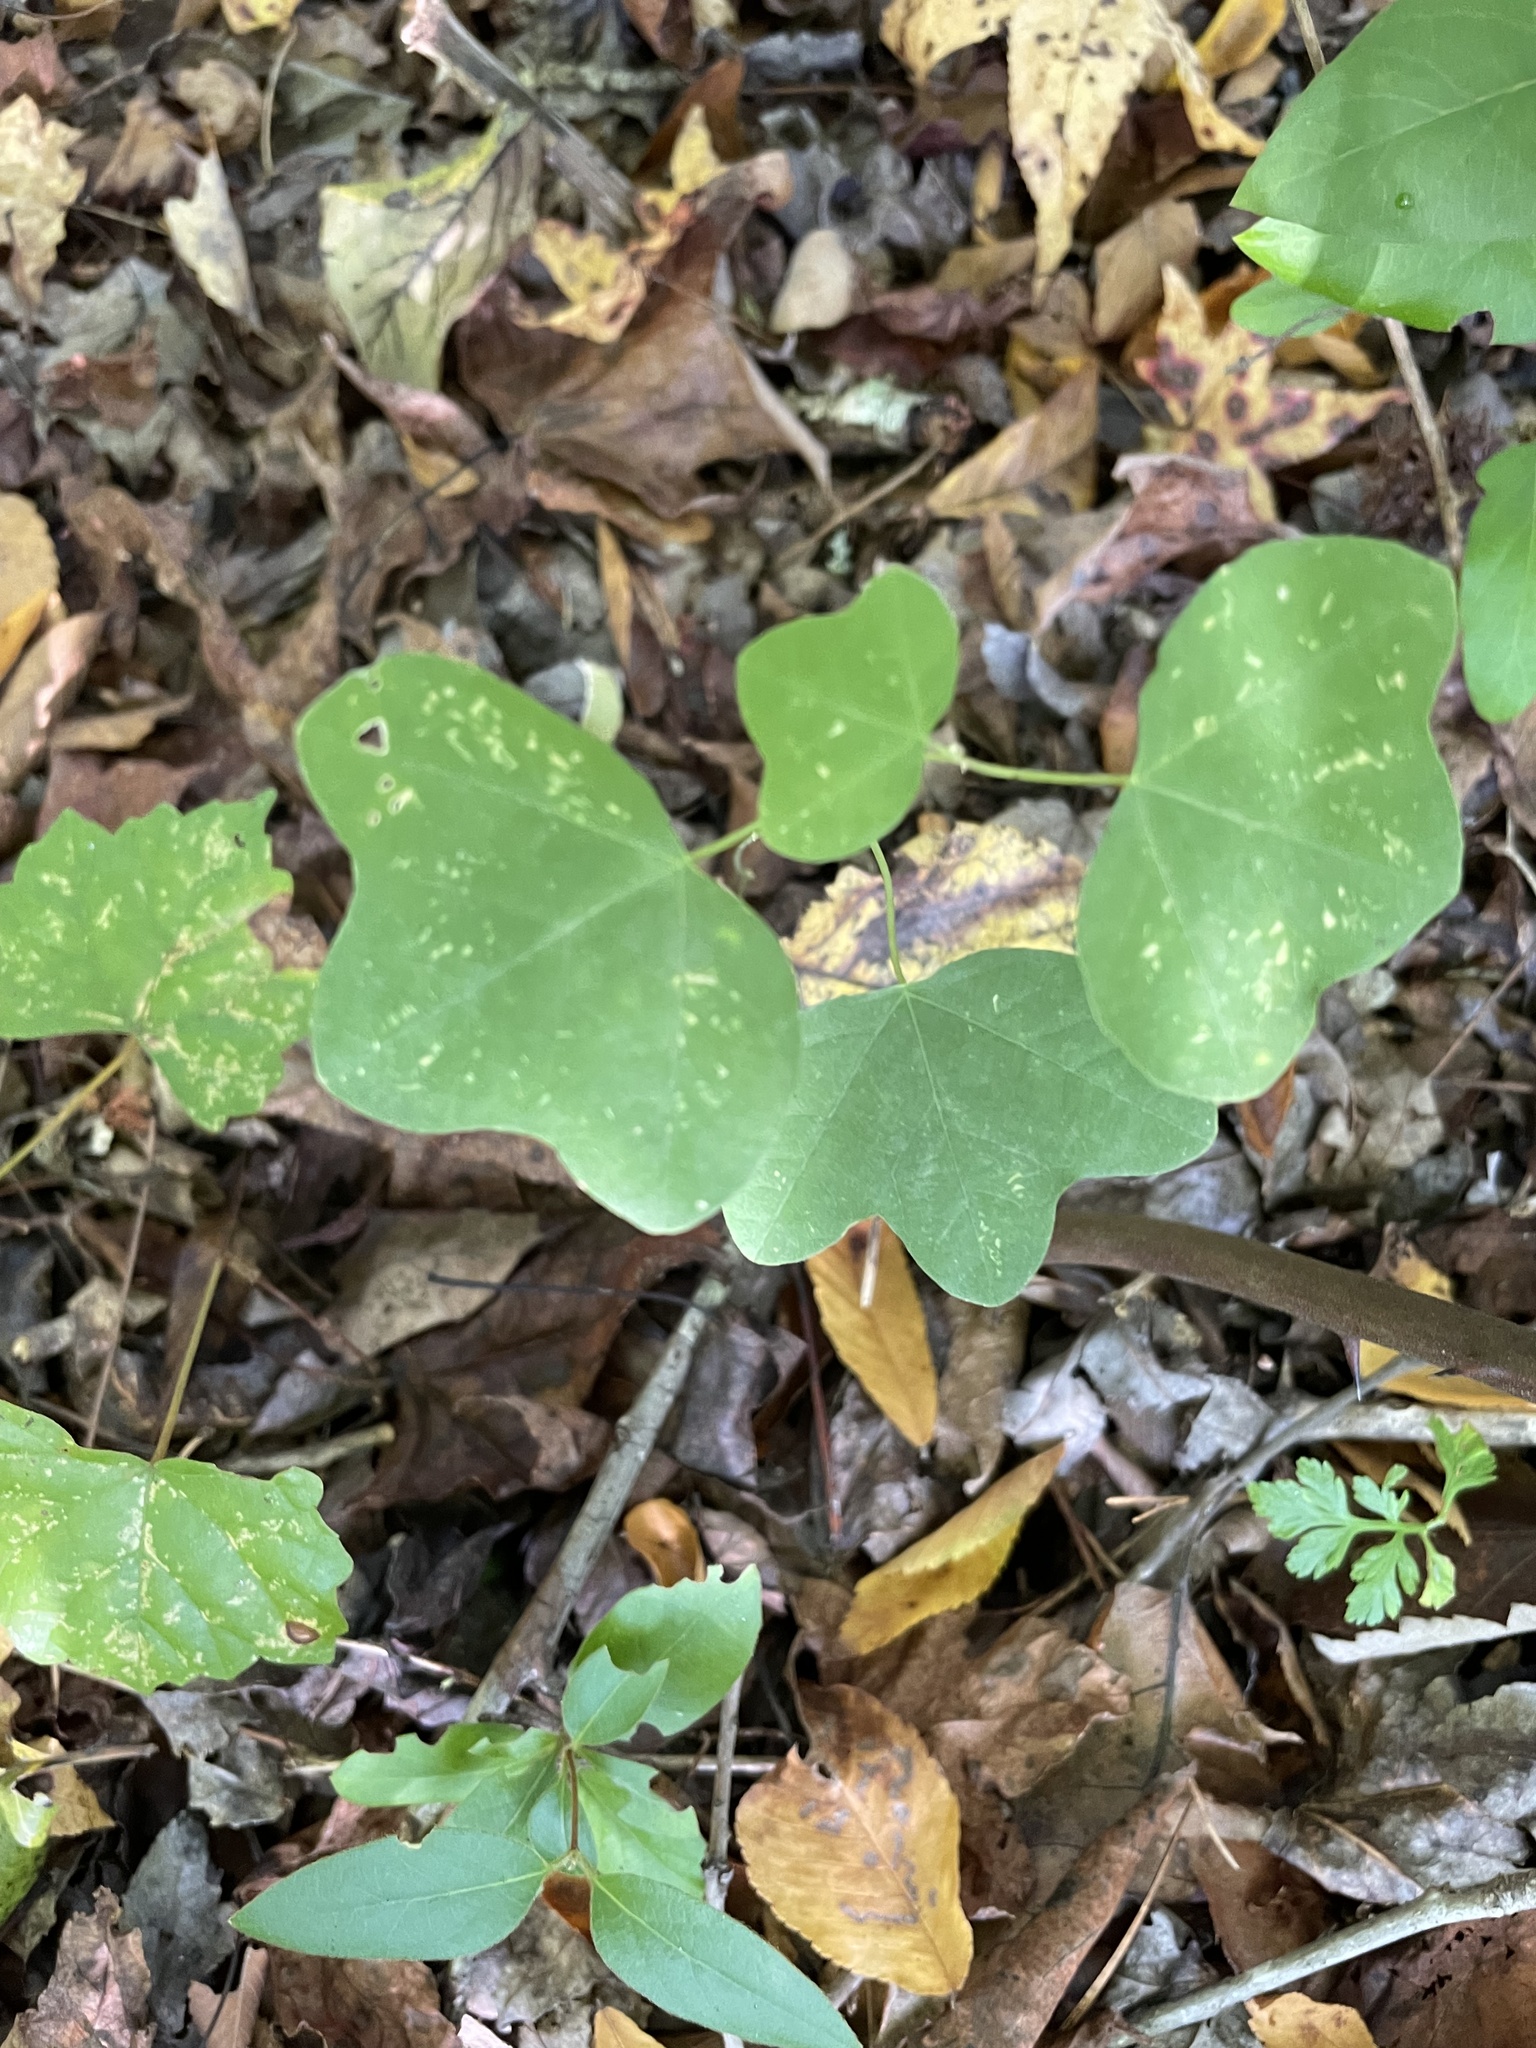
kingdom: Plantae
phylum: Tracheophyta
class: Magnoliopsida
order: Malpighiales
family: Passifloraceae
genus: Passiflora
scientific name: Passiflora lutea
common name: Yellow passionflower
